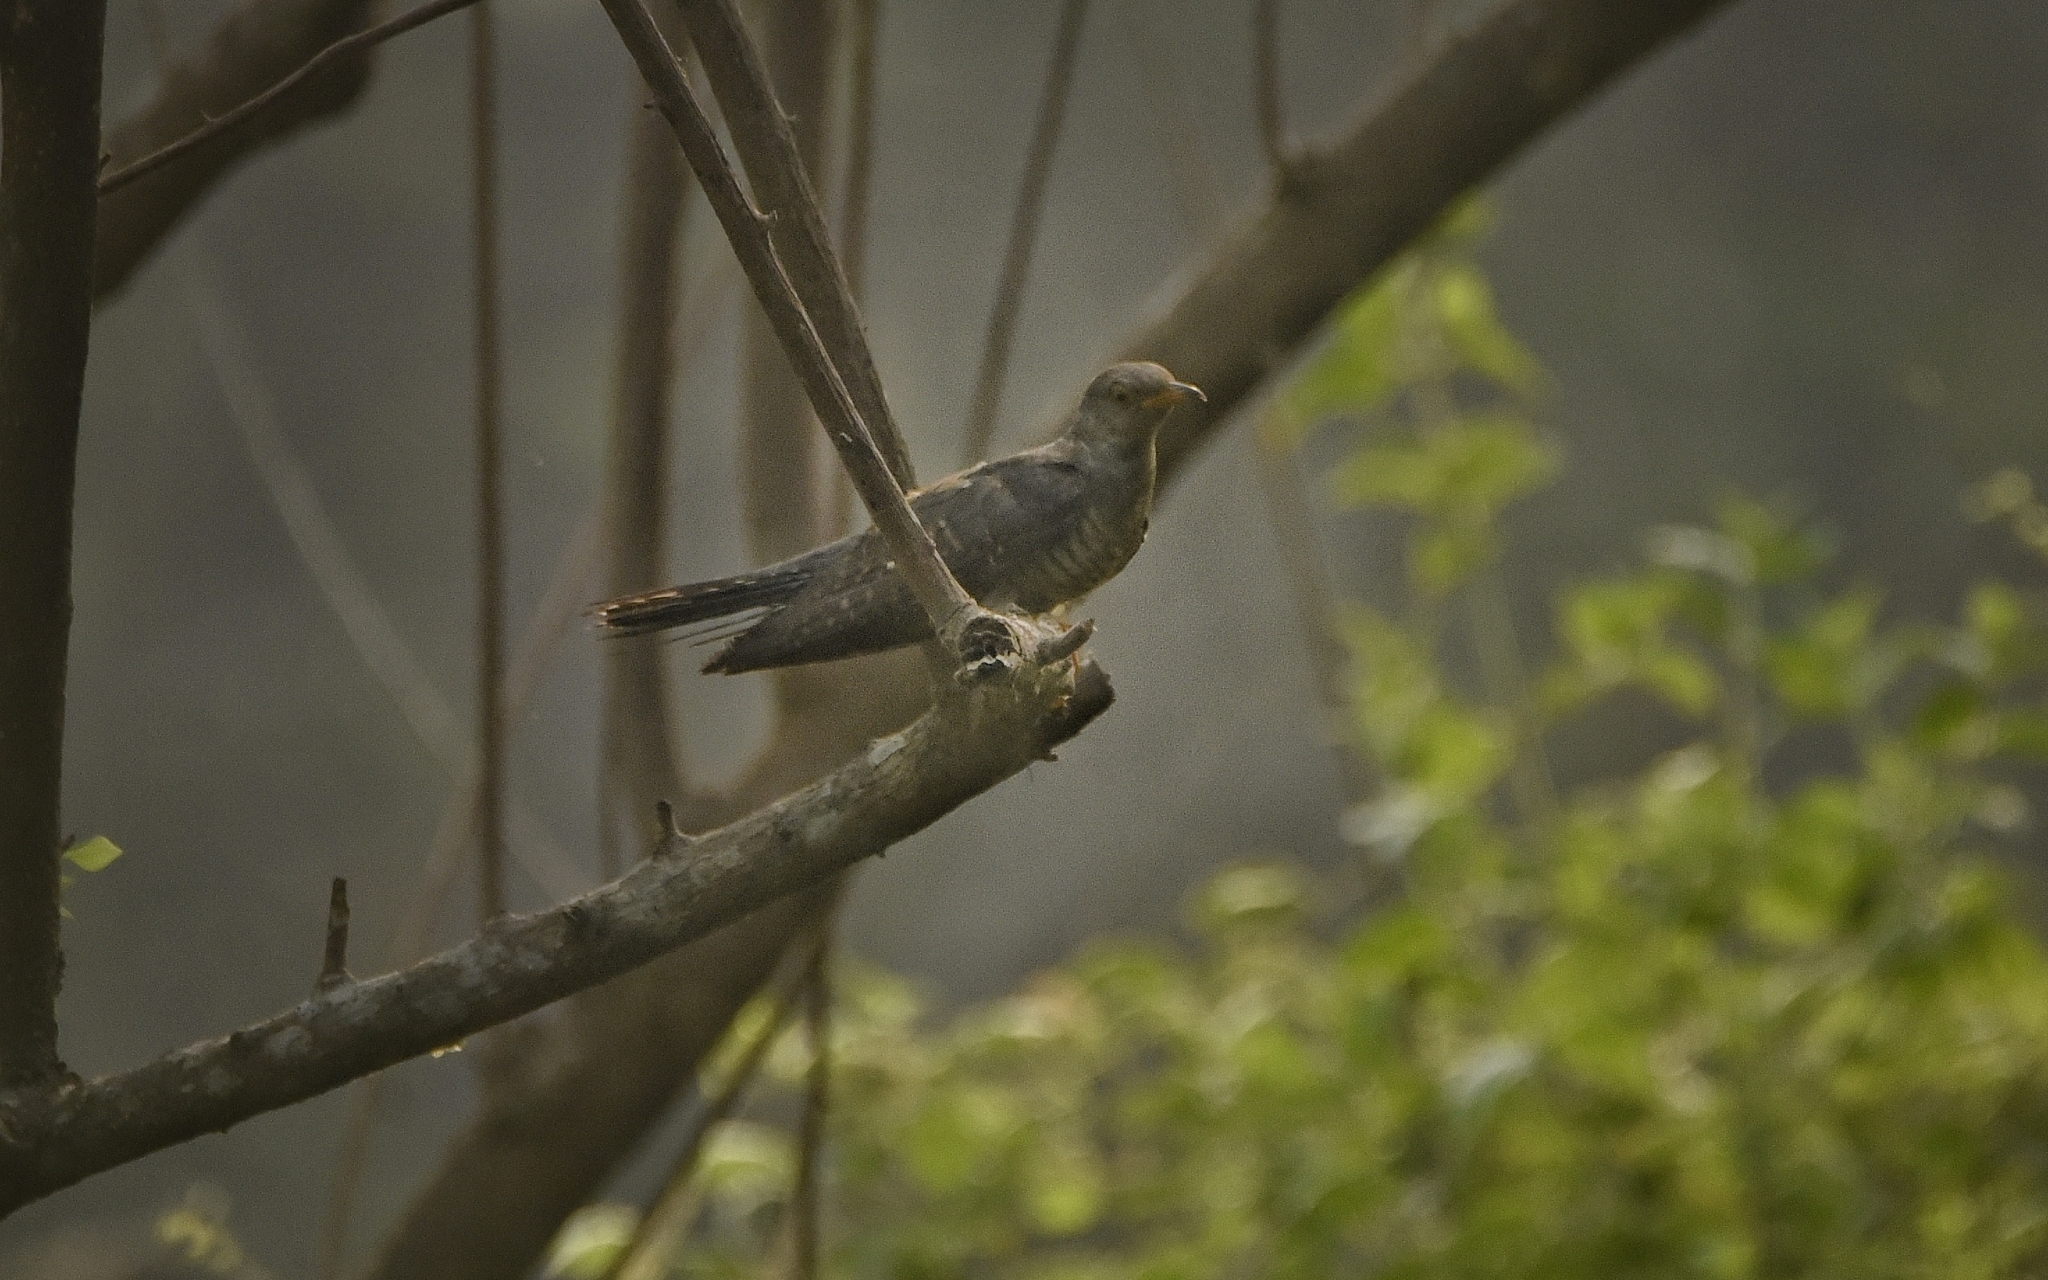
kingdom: Animalia
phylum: Chordata
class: Aves
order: Cuculiformes
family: Cuculidae
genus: Cuculus
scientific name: Cuculus canorus
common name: Common cuckoo
